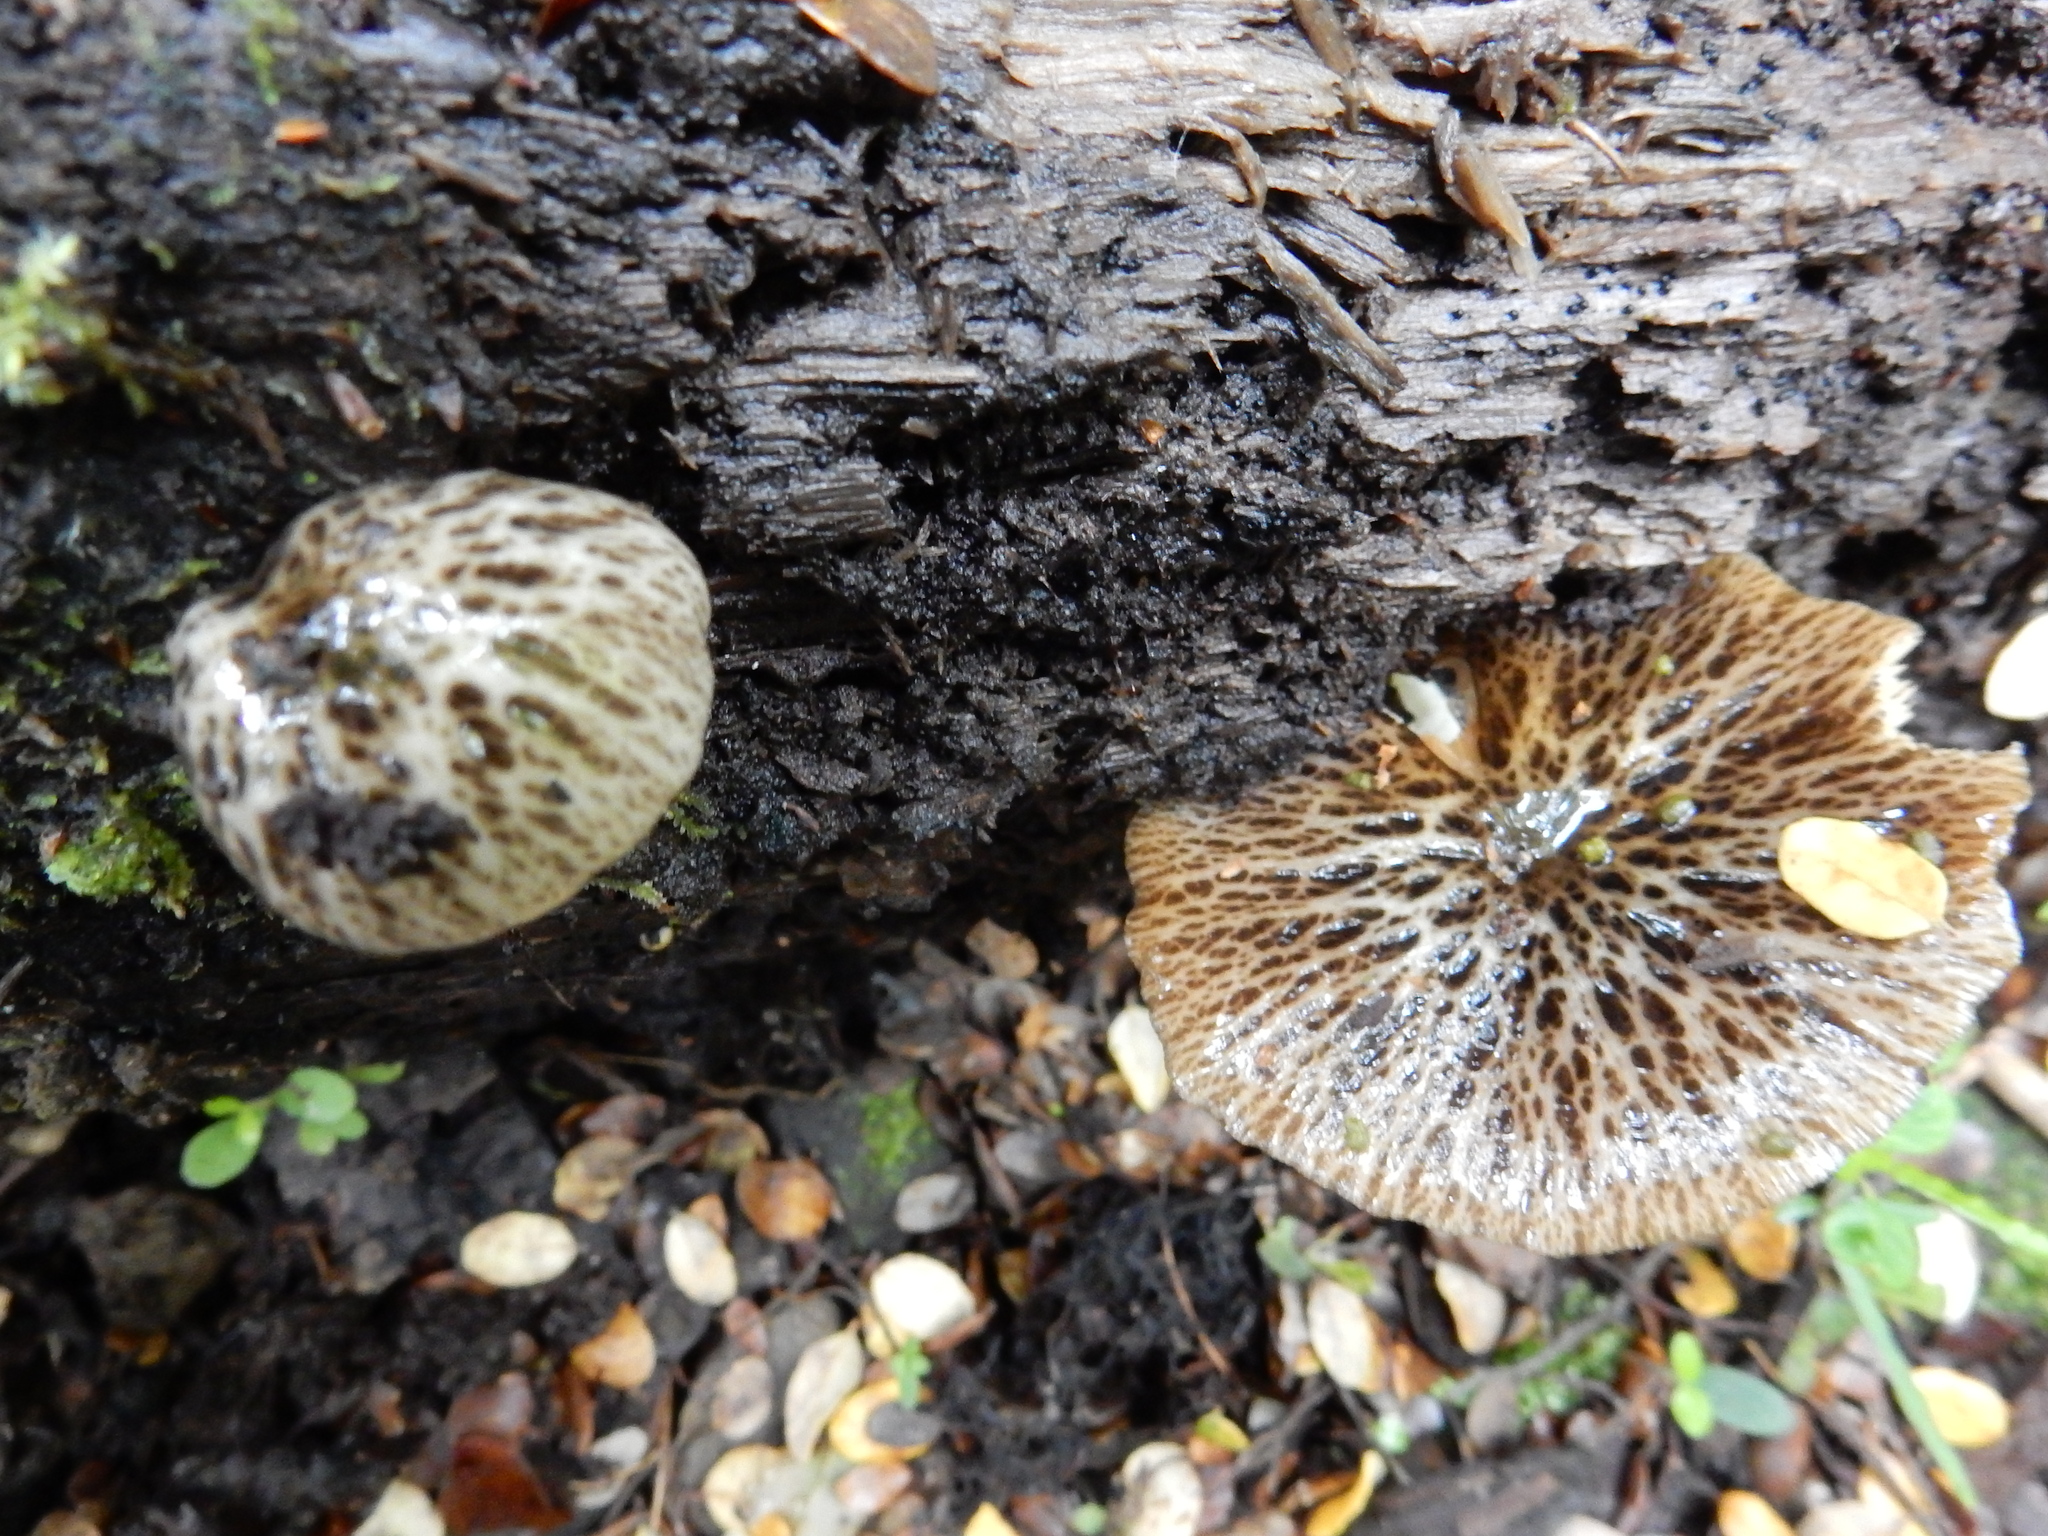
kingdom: Fungi
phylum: Basidiomycota
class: Agaricomycetes
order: Agaricales
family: Bolbitiaceae
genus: Bolbitius
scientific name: Bolbitius muscicola
